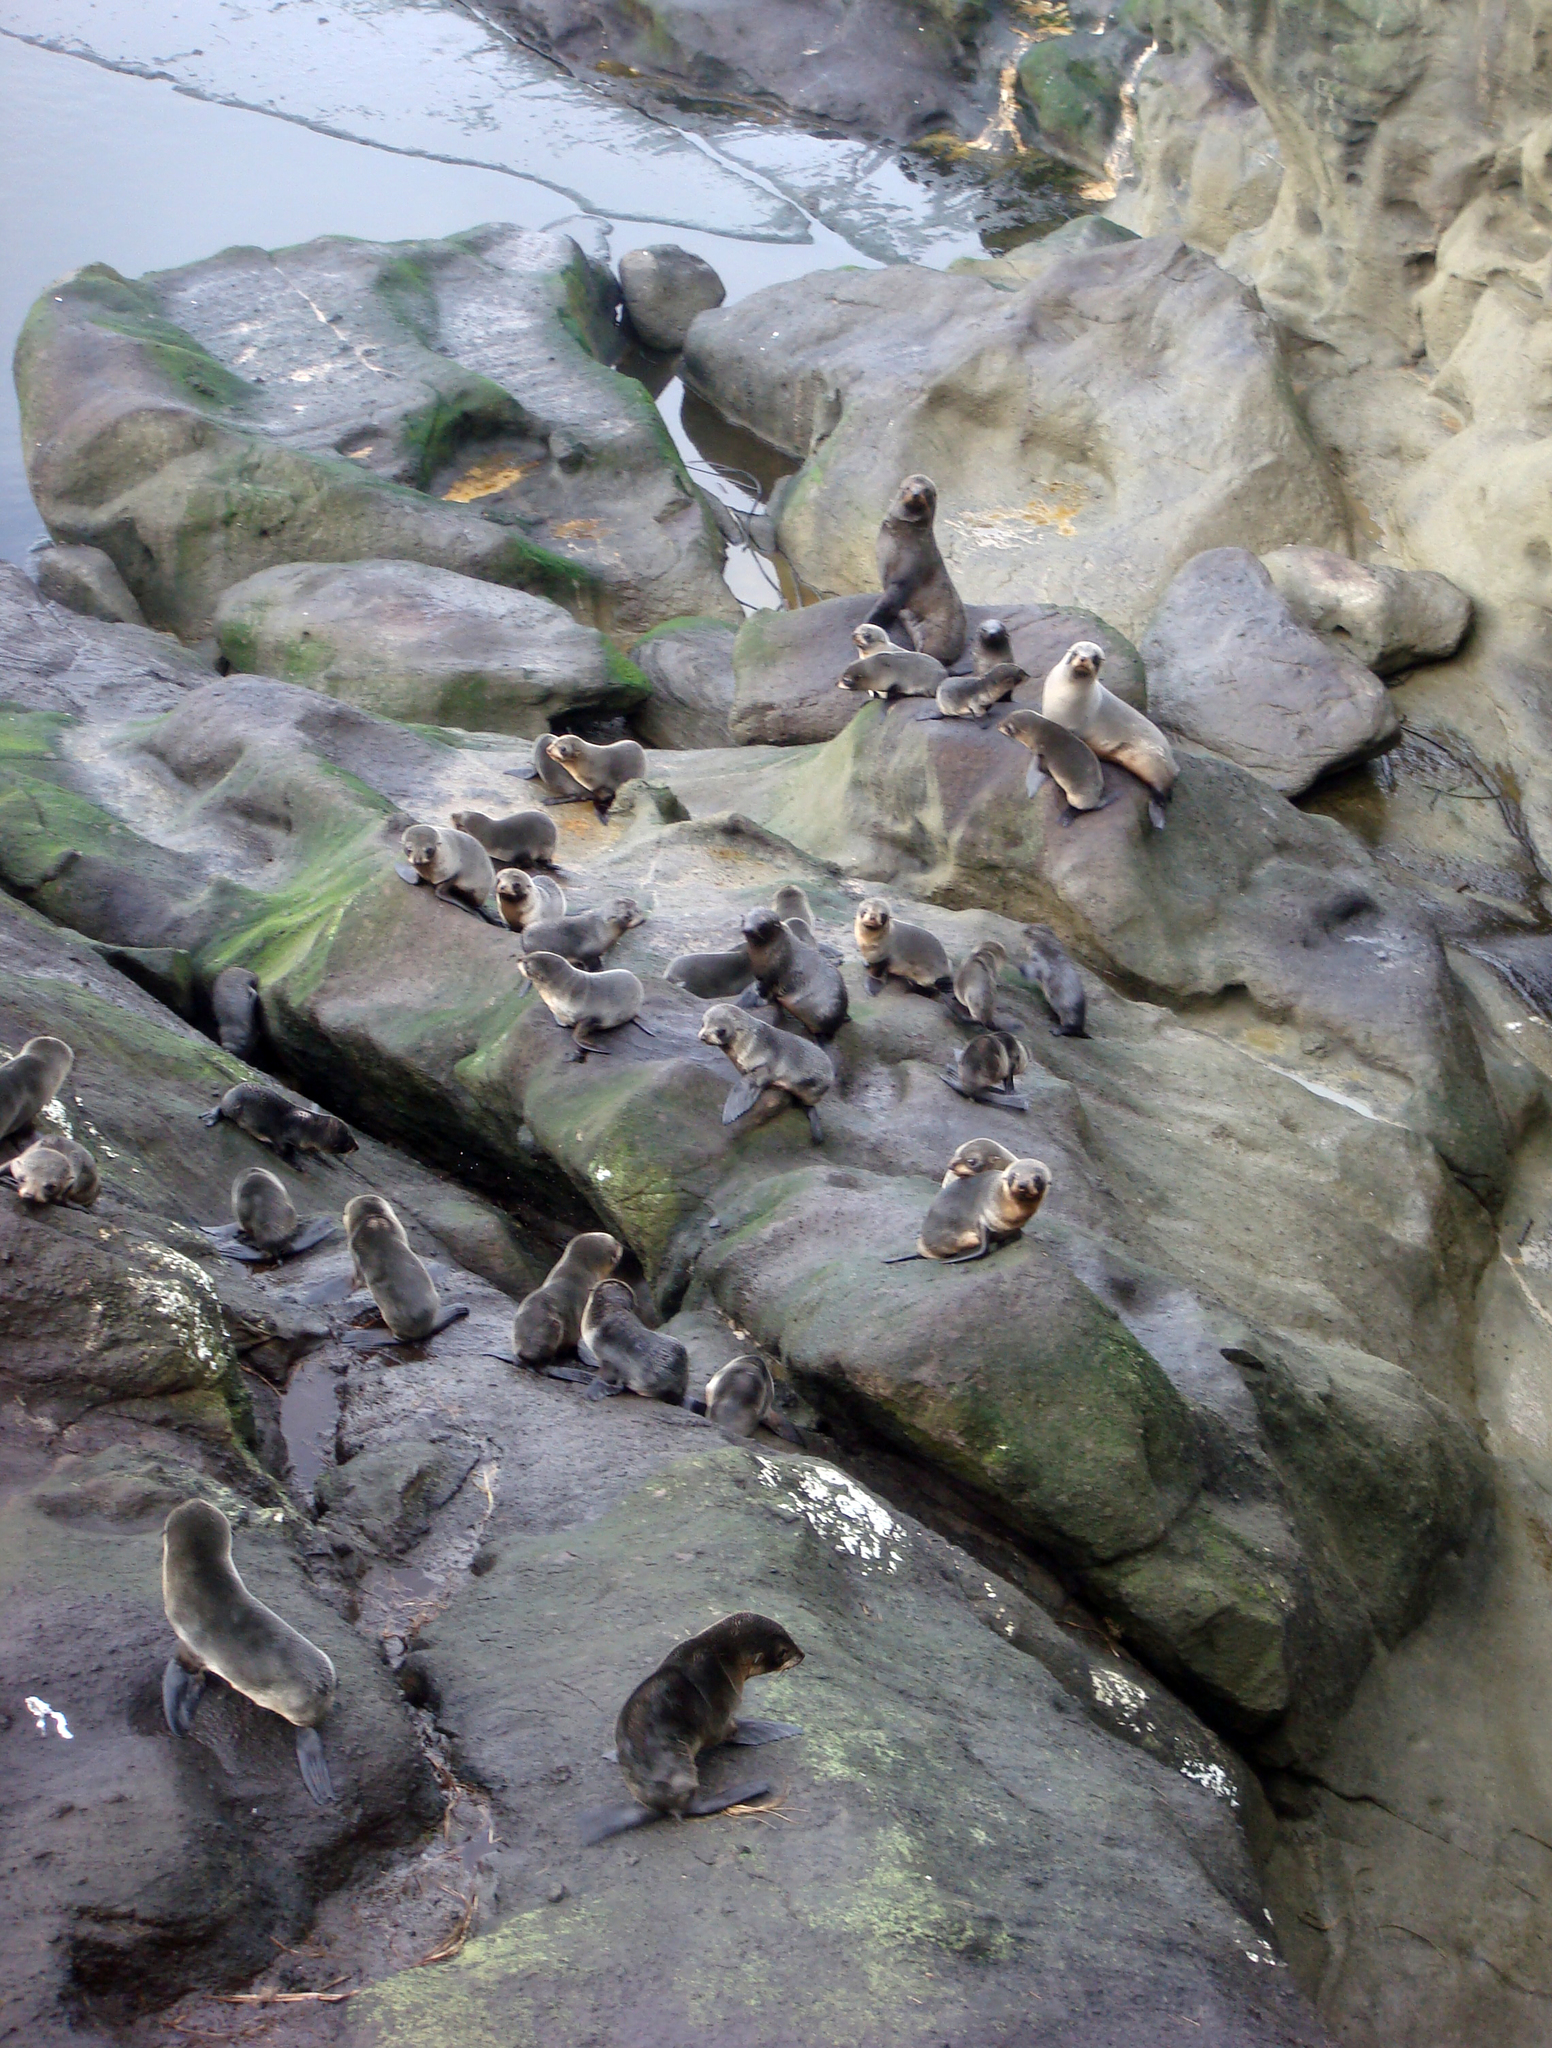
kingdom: Animalia
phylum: Chordata
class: Mammalia
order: Carnivora
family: Otariidae
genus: Arctocephalus
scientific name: Arctocephalus forsteri
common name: New zealand fur seal
